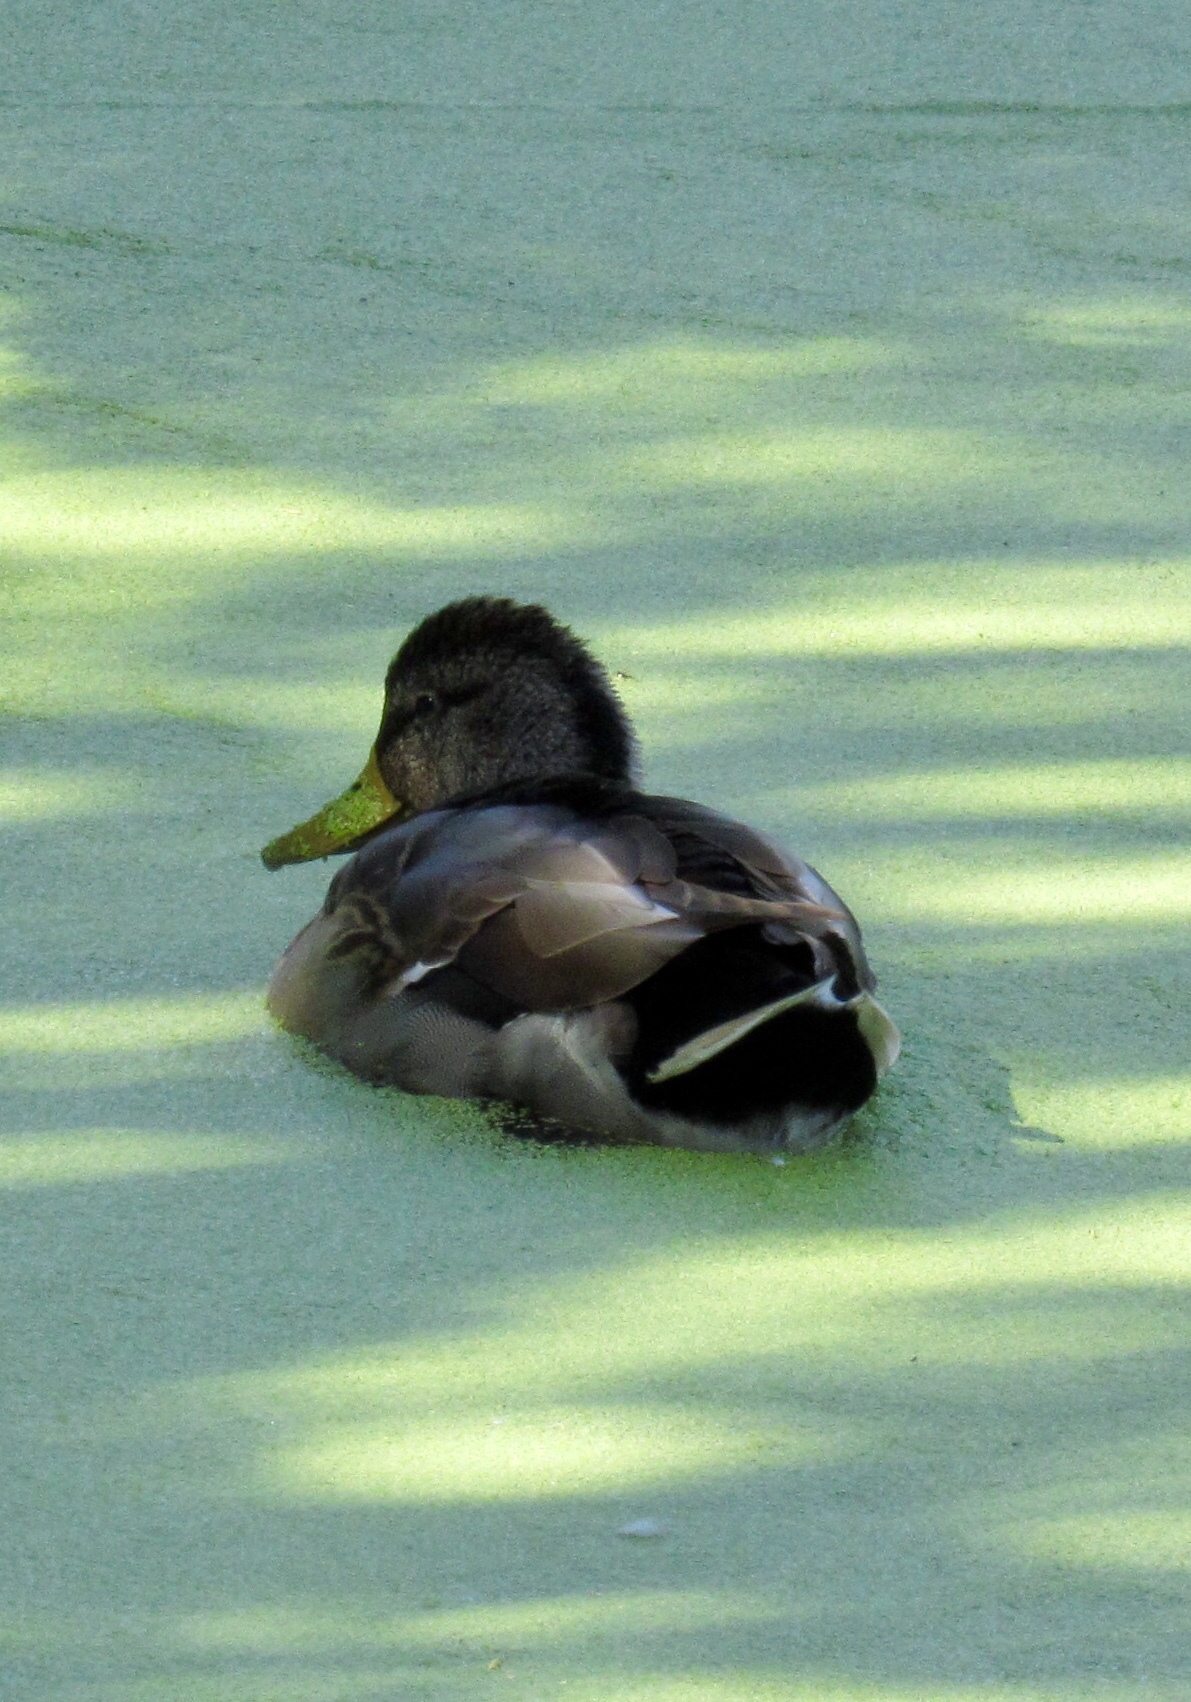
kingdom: Animalia
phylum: Chordata
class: Aves
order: Anseriformes
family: Anatidae
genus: Anas
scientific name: Anas platyrhynchos
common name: Mallard
